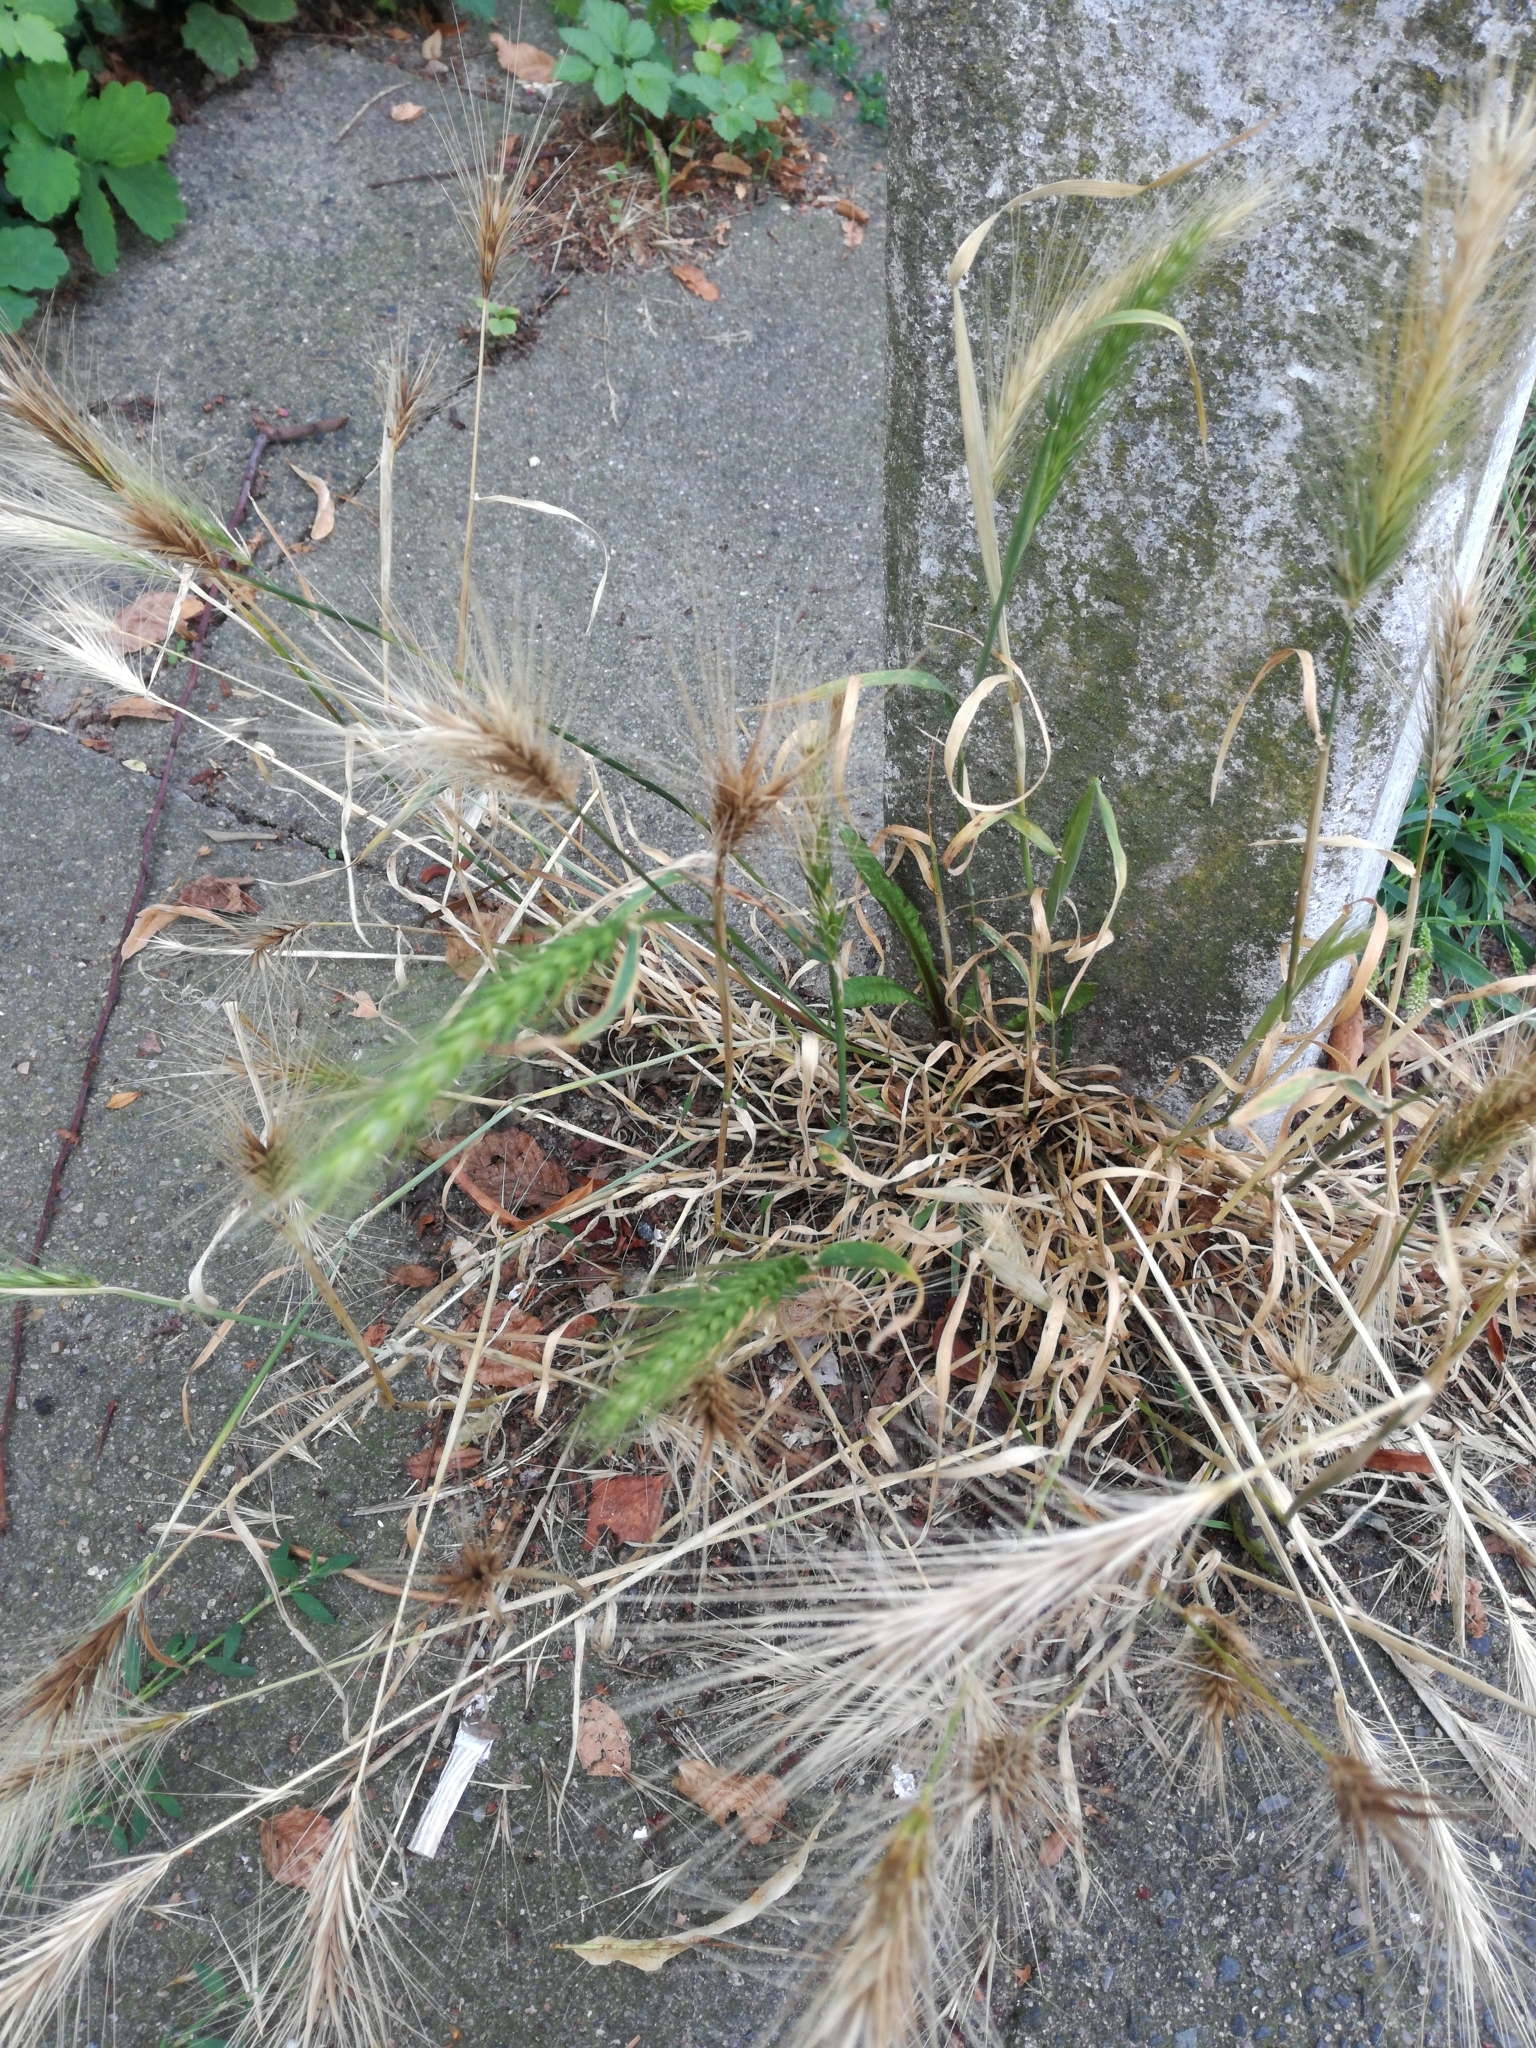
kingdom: Plantae
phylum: Tracheophyta
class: Liliopsida
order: Poales
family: Poaceae
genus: Hordeum
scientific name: Hordeum murinum
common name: Wall barley
